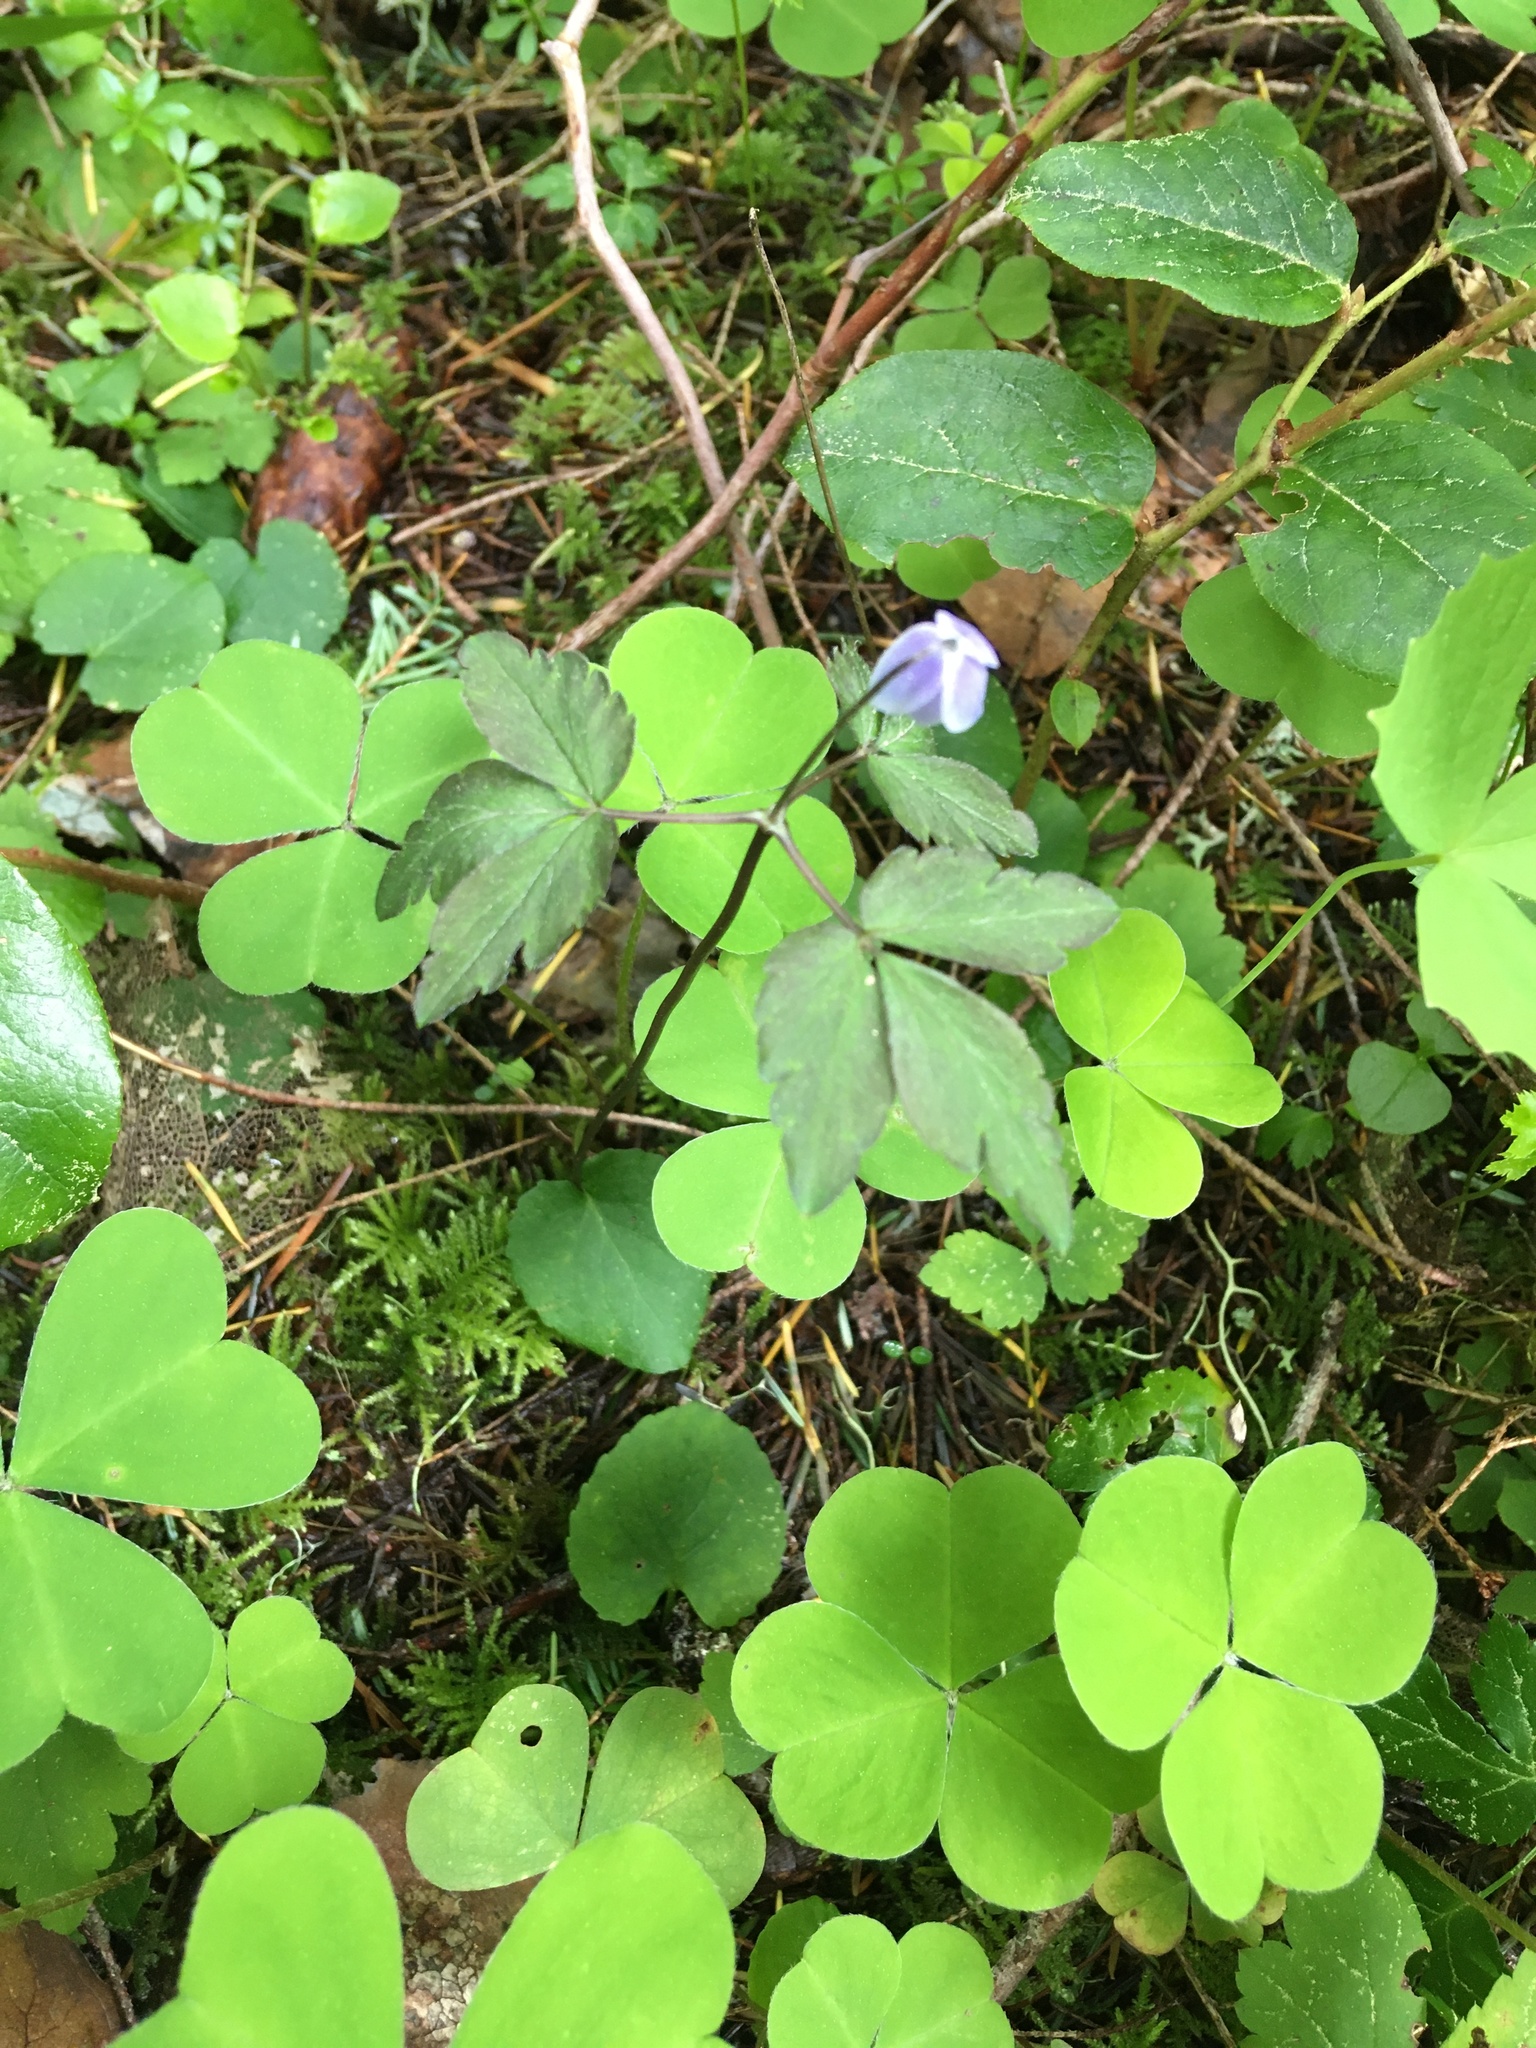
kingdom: Plantae
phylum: Tracheophyta
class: Magnoliopsida
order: Ranunculales
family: Ranunculaceae
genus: Anemone
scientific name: Anemone
